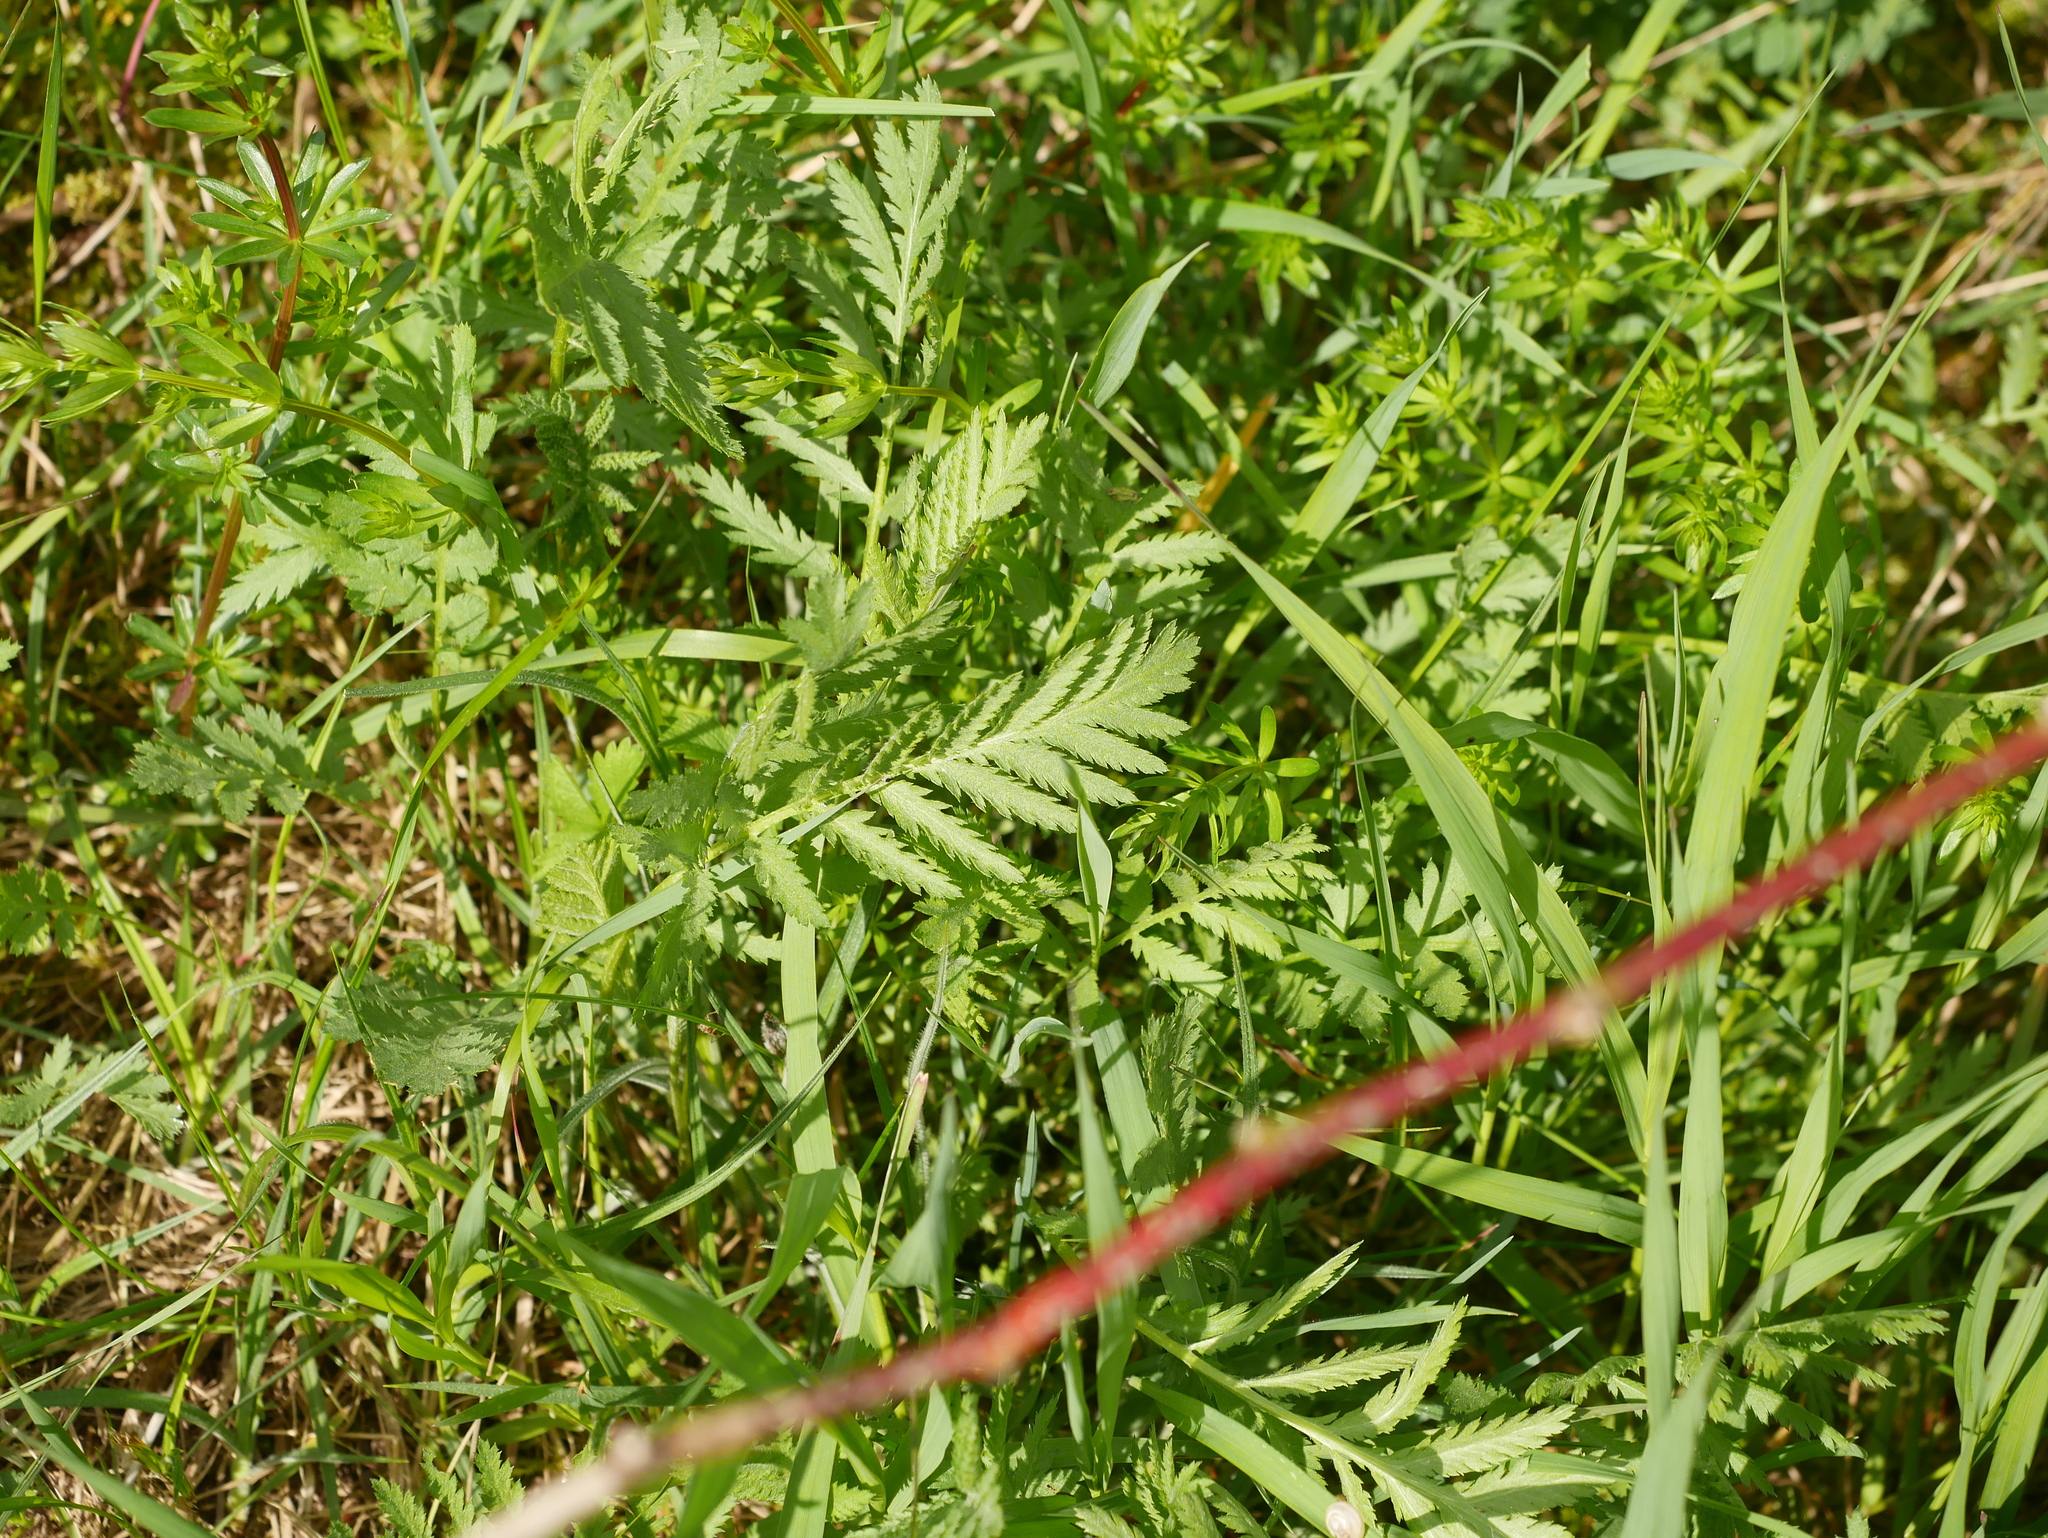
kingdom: Plantae
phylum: Tracheophyta
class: Magnoliopsida
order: Asterales
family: Asteraceae
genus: Tanacetum
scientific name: Tanacetum vulgare
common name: Common tansy
